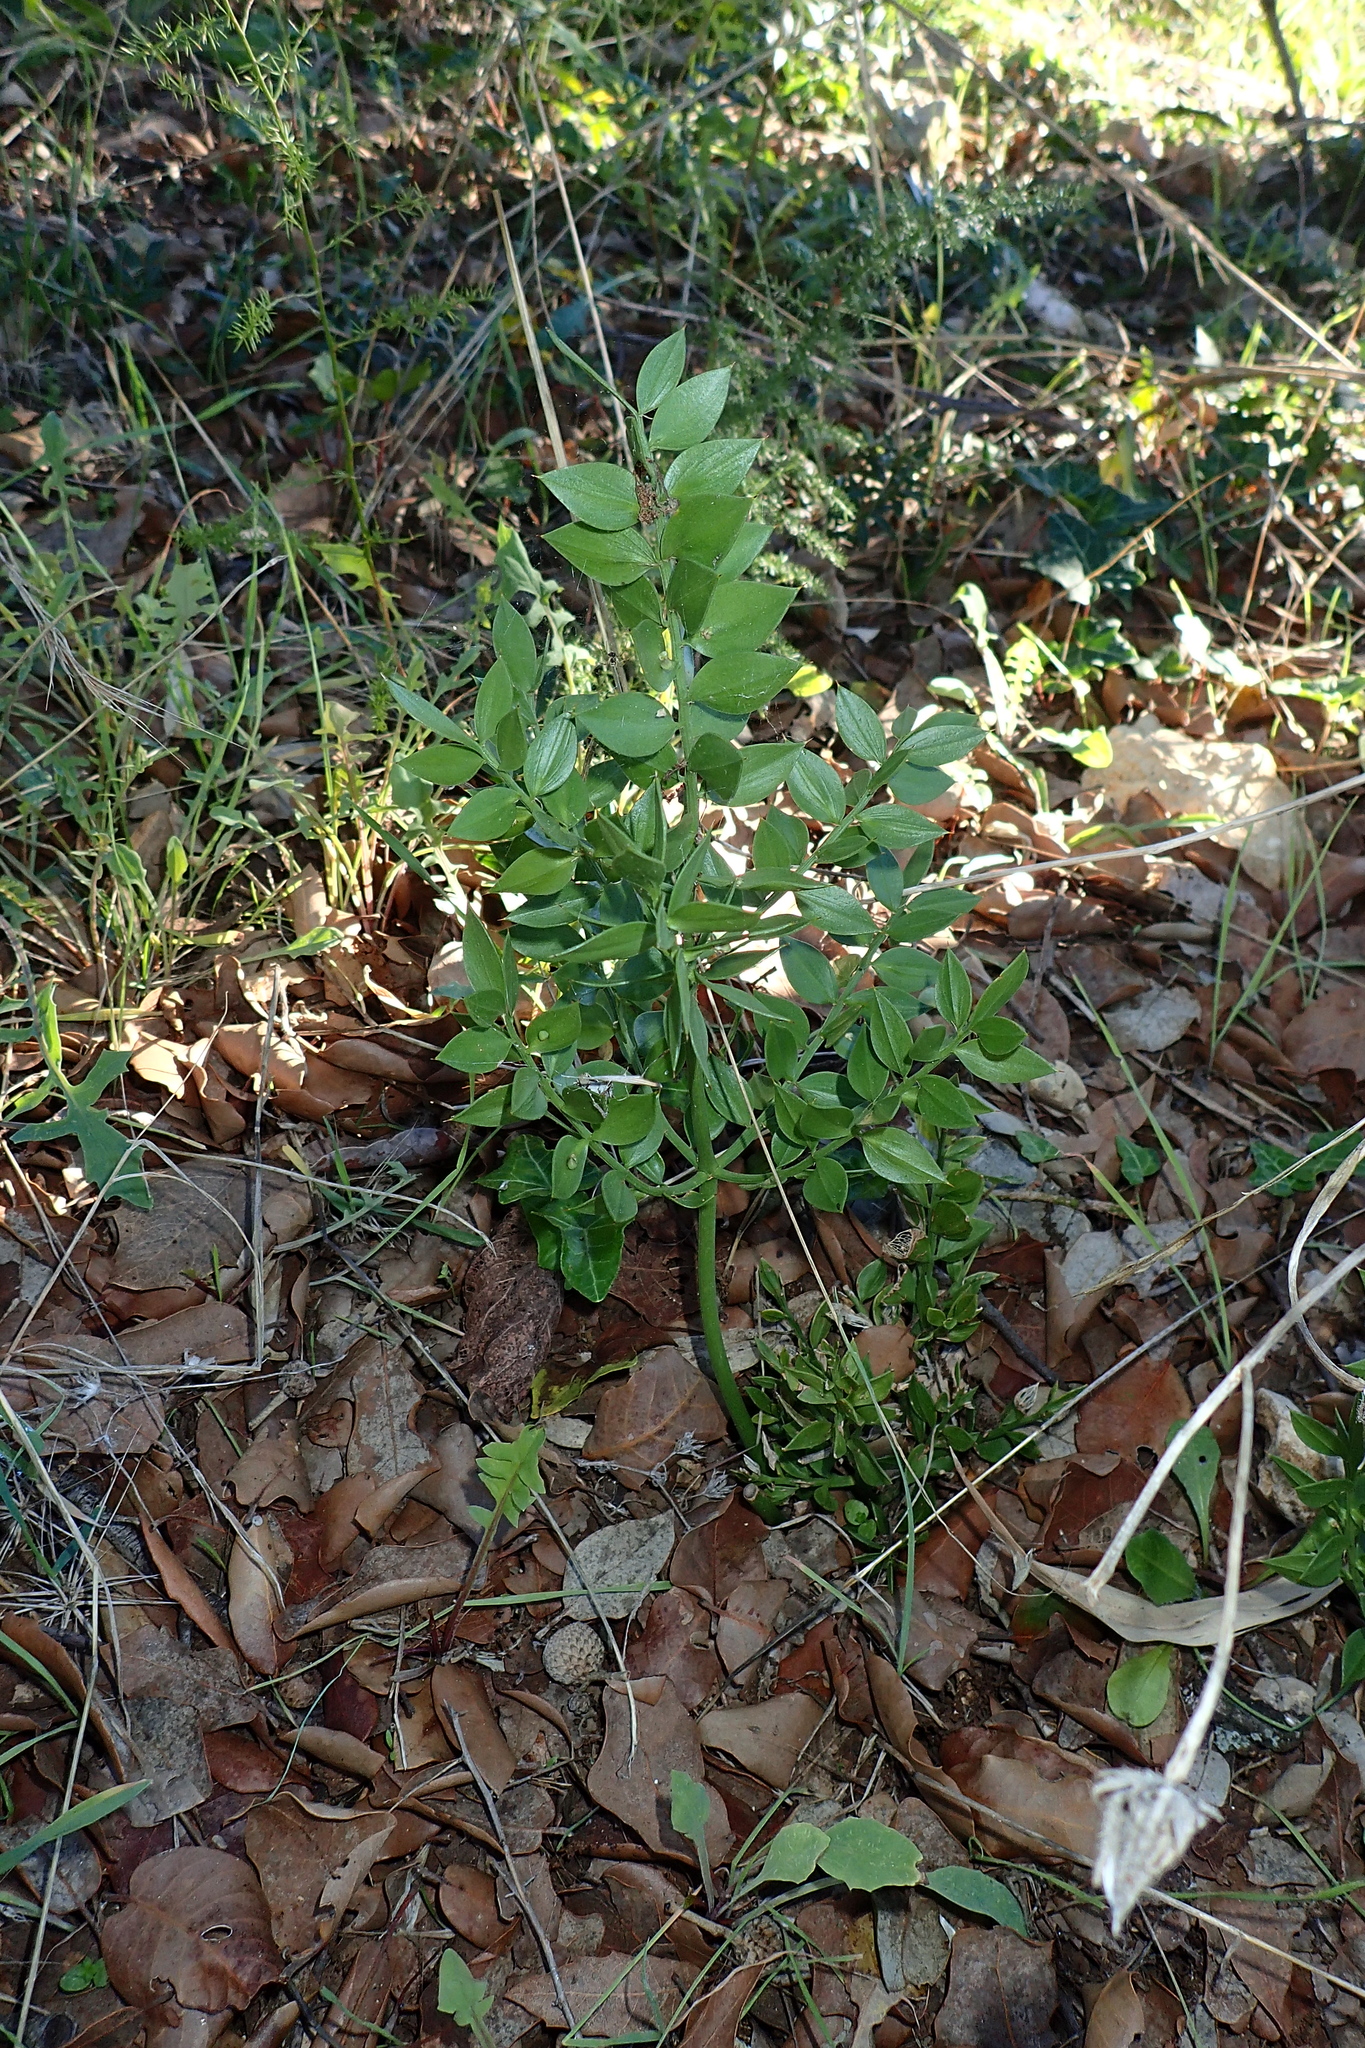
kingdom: Plantae
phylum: Tracheophyta
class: Liliopsida
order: Asparagales
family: Asparagaceae
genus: Ruscus
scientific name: Ruscus aculeatus
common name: Butcher's-broom
